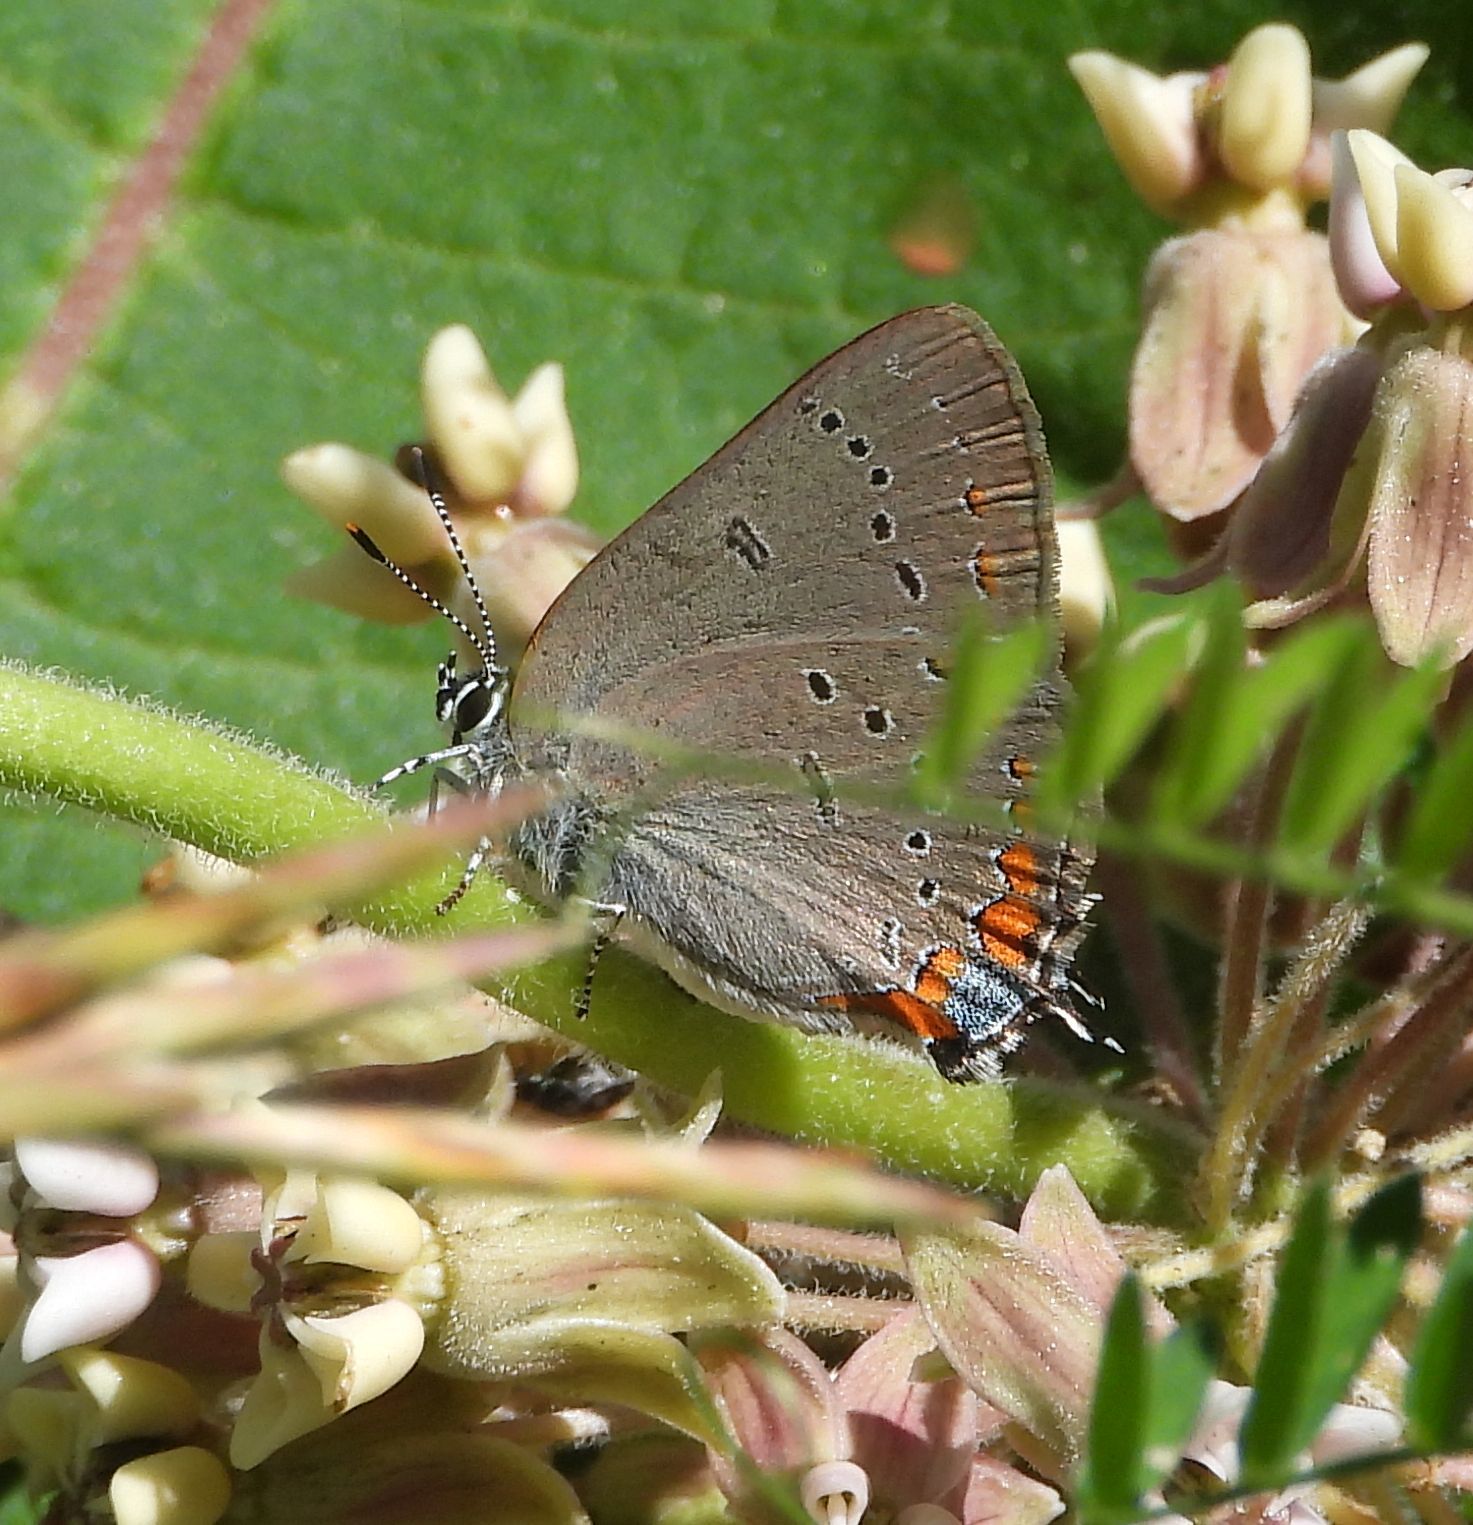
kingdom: Animalia
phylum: Arthropoda
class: Insecta
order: Lepidoptera
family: Lycaenidae
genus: Strymon
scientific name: Strymon acadica
